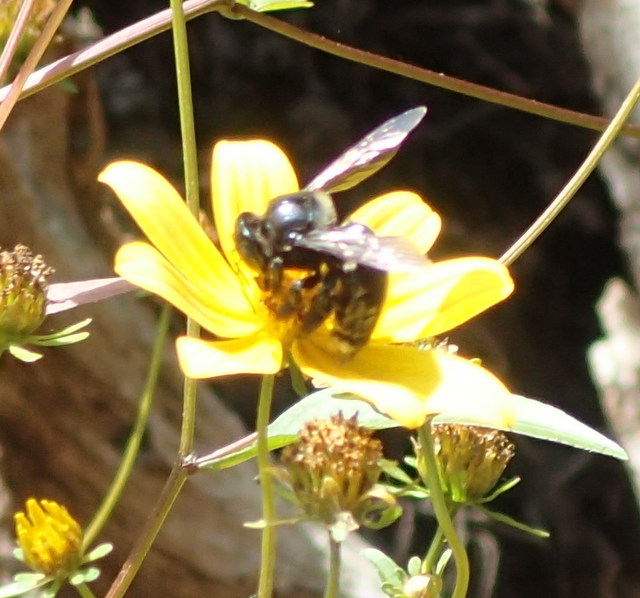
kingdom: Animalia
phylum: Arthropoda
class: Insecta
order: Hymenoptera
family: Apidae
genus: Xylocopa
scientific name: Xylocopa micans
